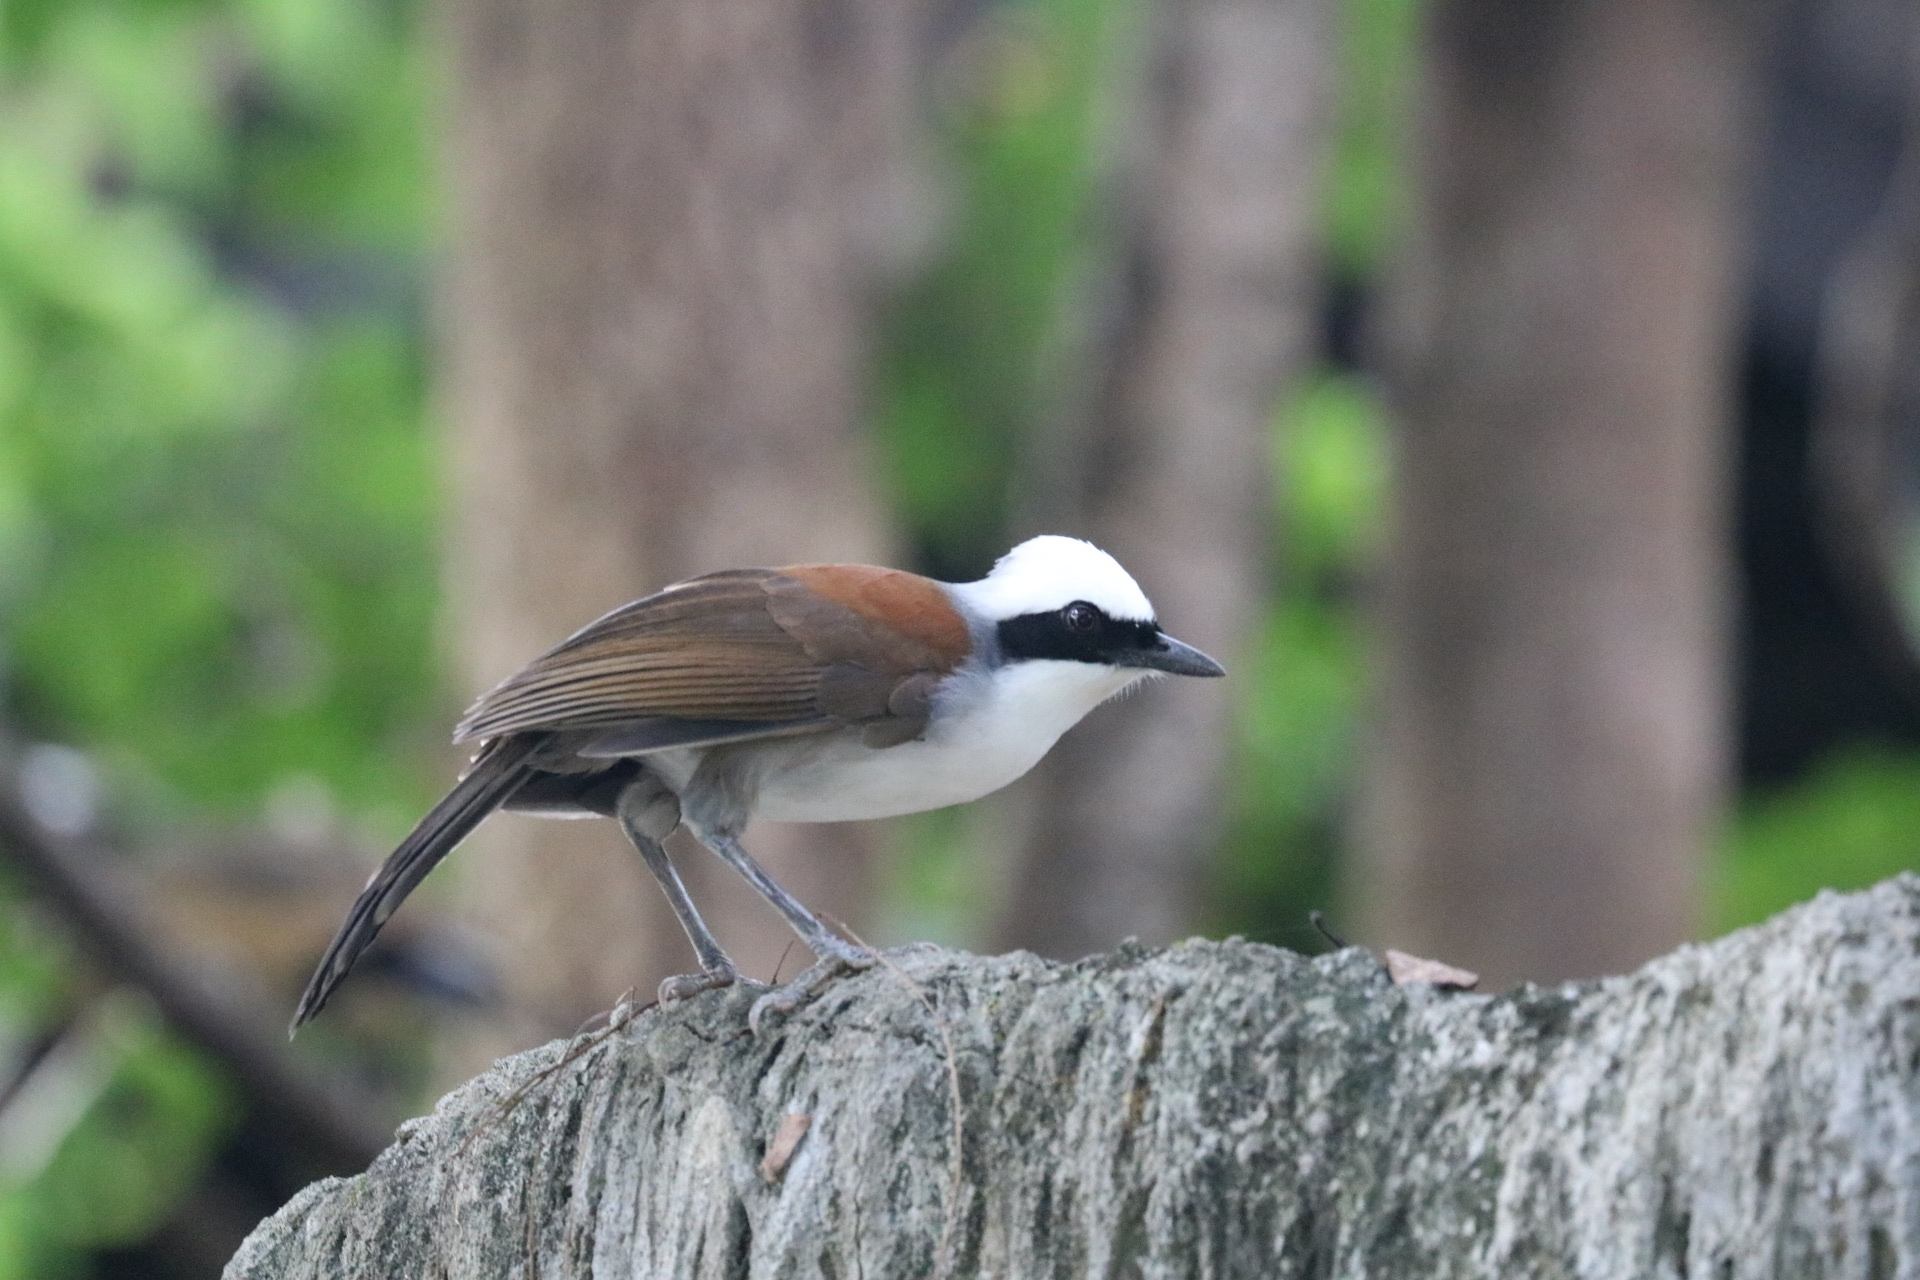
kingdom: Animalia
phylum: Chordata
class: Aves
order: Passeriformes
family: Leiothrichidae
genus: Garrulax
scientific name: Garrulax leucolophus
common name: White-crested laughingthrush
